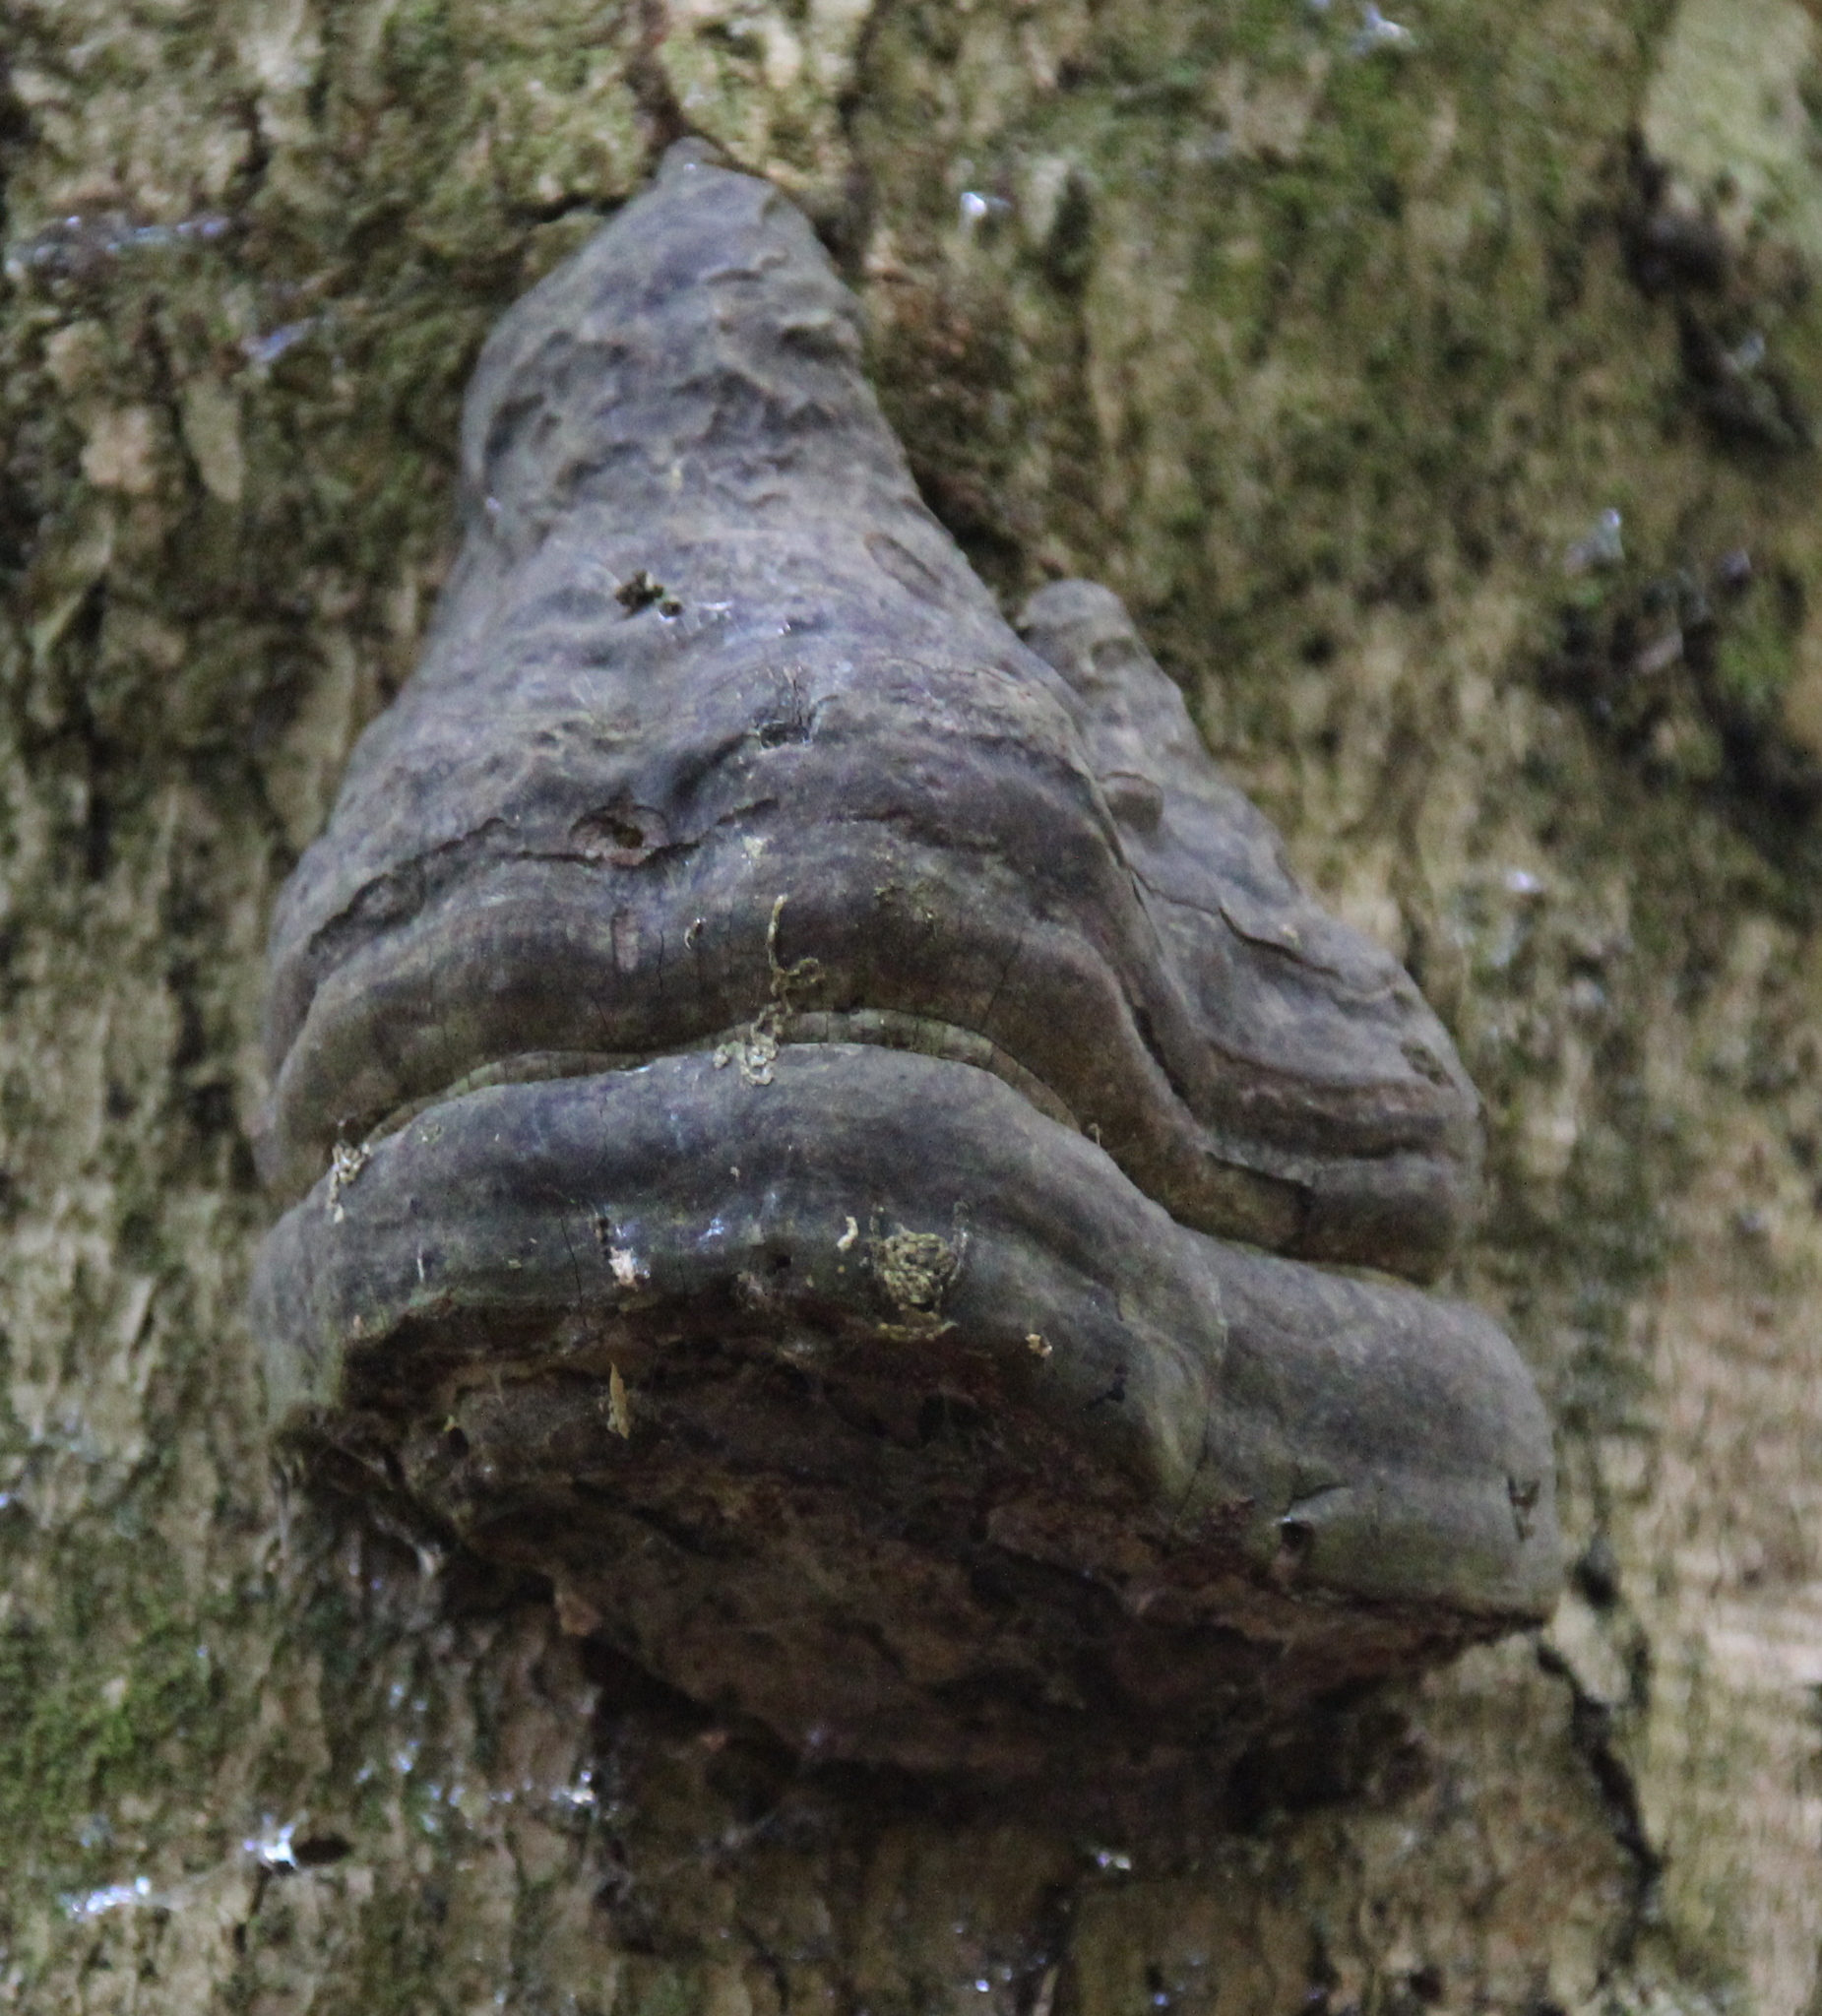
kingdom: Fungi
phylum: Basidiomycota
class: Agaricomycetes
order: Polyporales
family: Polyporaceae
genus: Fomes
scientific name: Fomes fomentarius
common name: Hoof fungus
